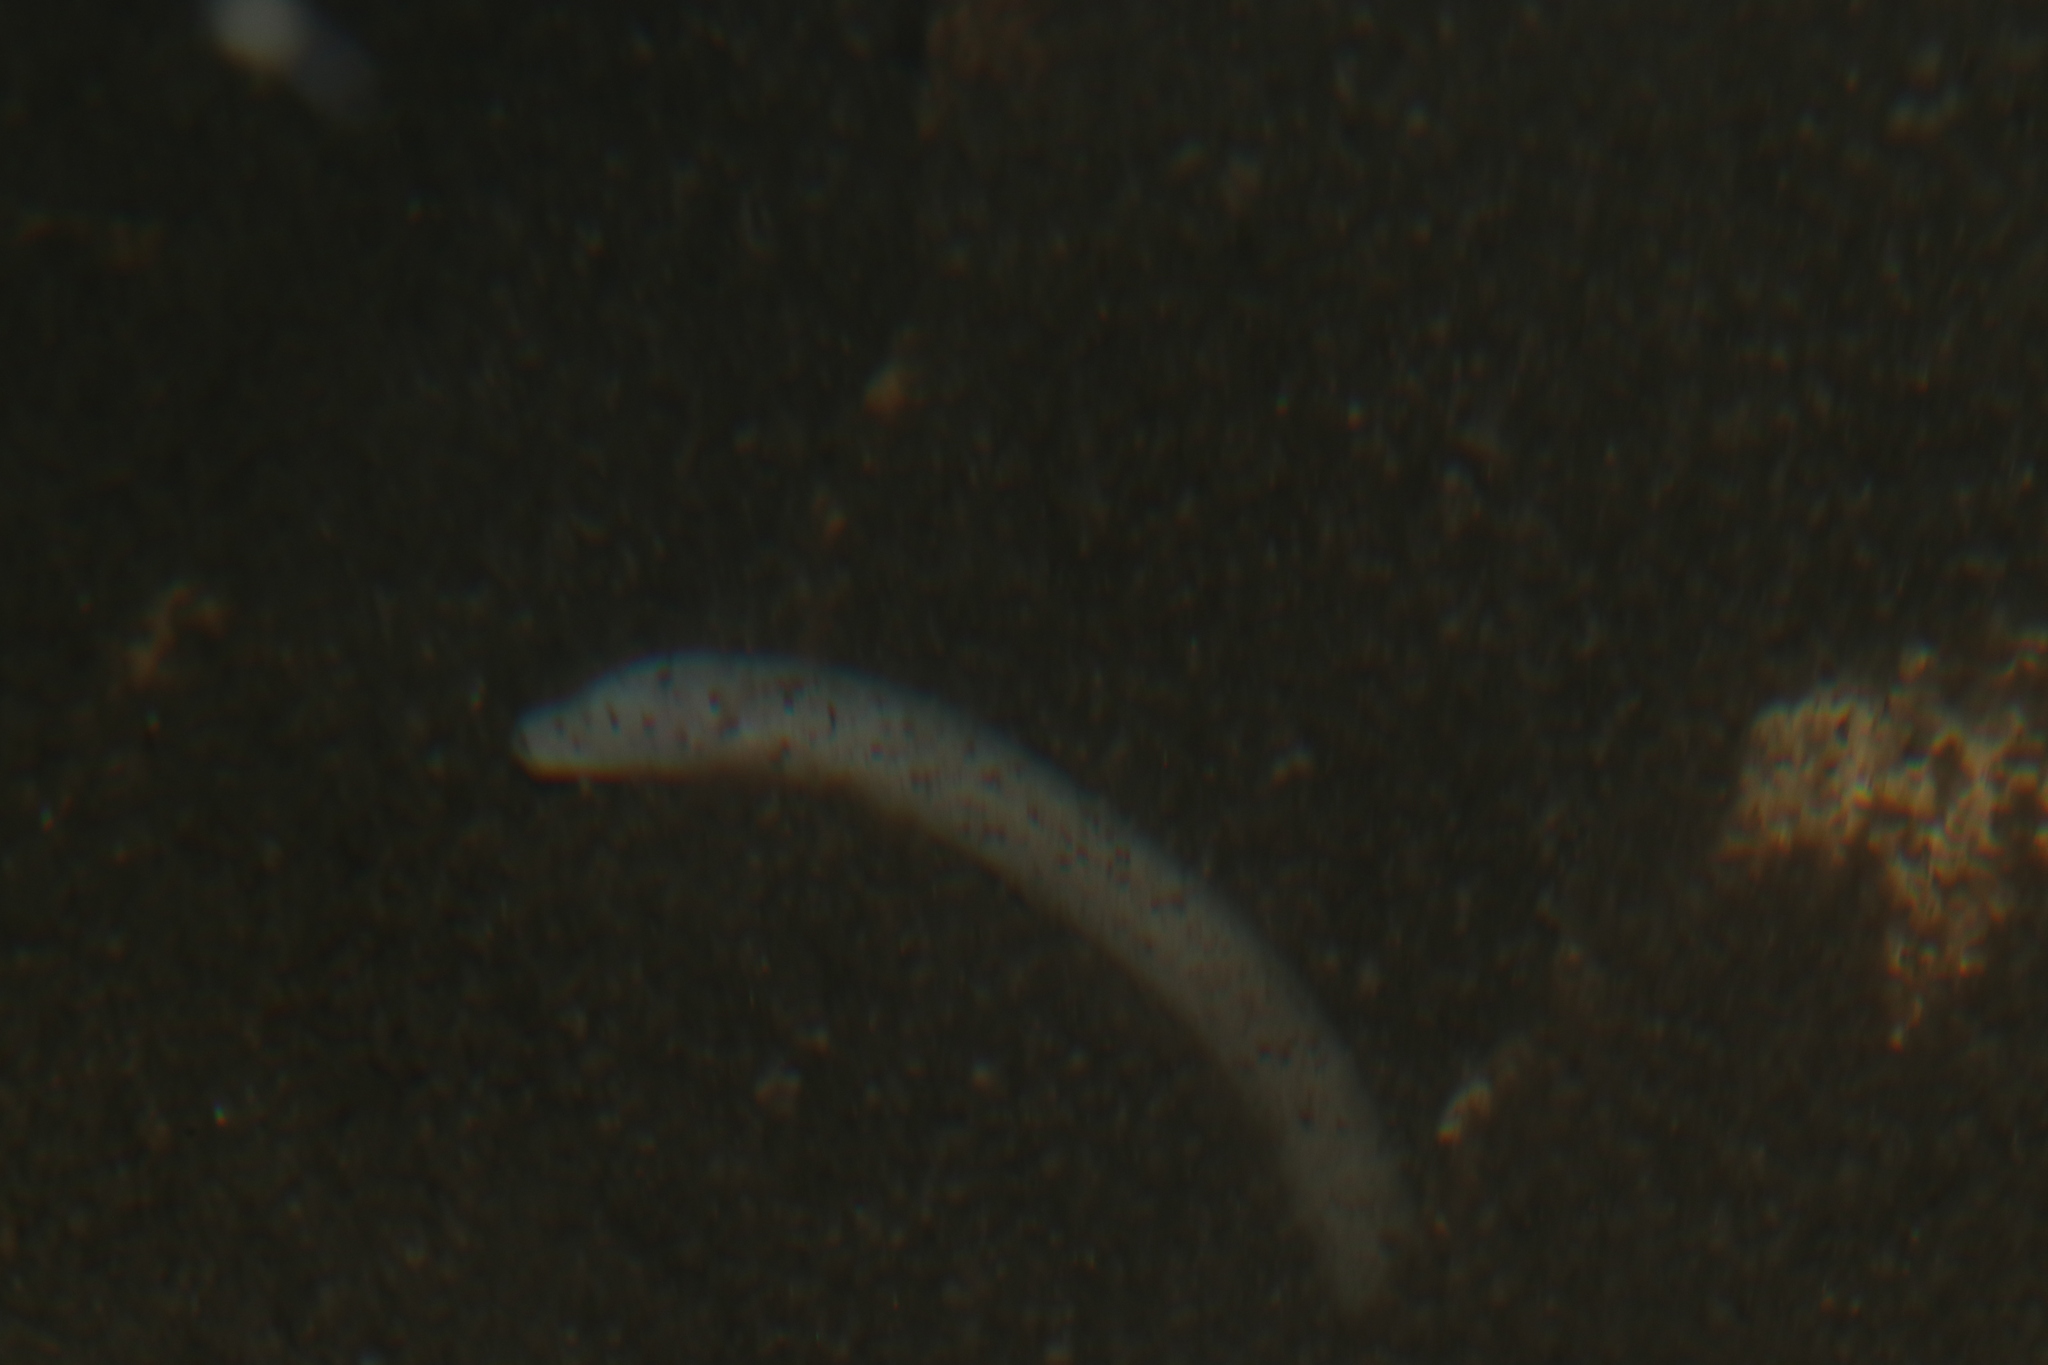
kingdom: Animalia
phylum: Chordata
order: Synbranchiformes
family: Synbranchidae
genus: Ophisternon
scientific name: Ophisternon infernale
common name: Blind swamp eel
